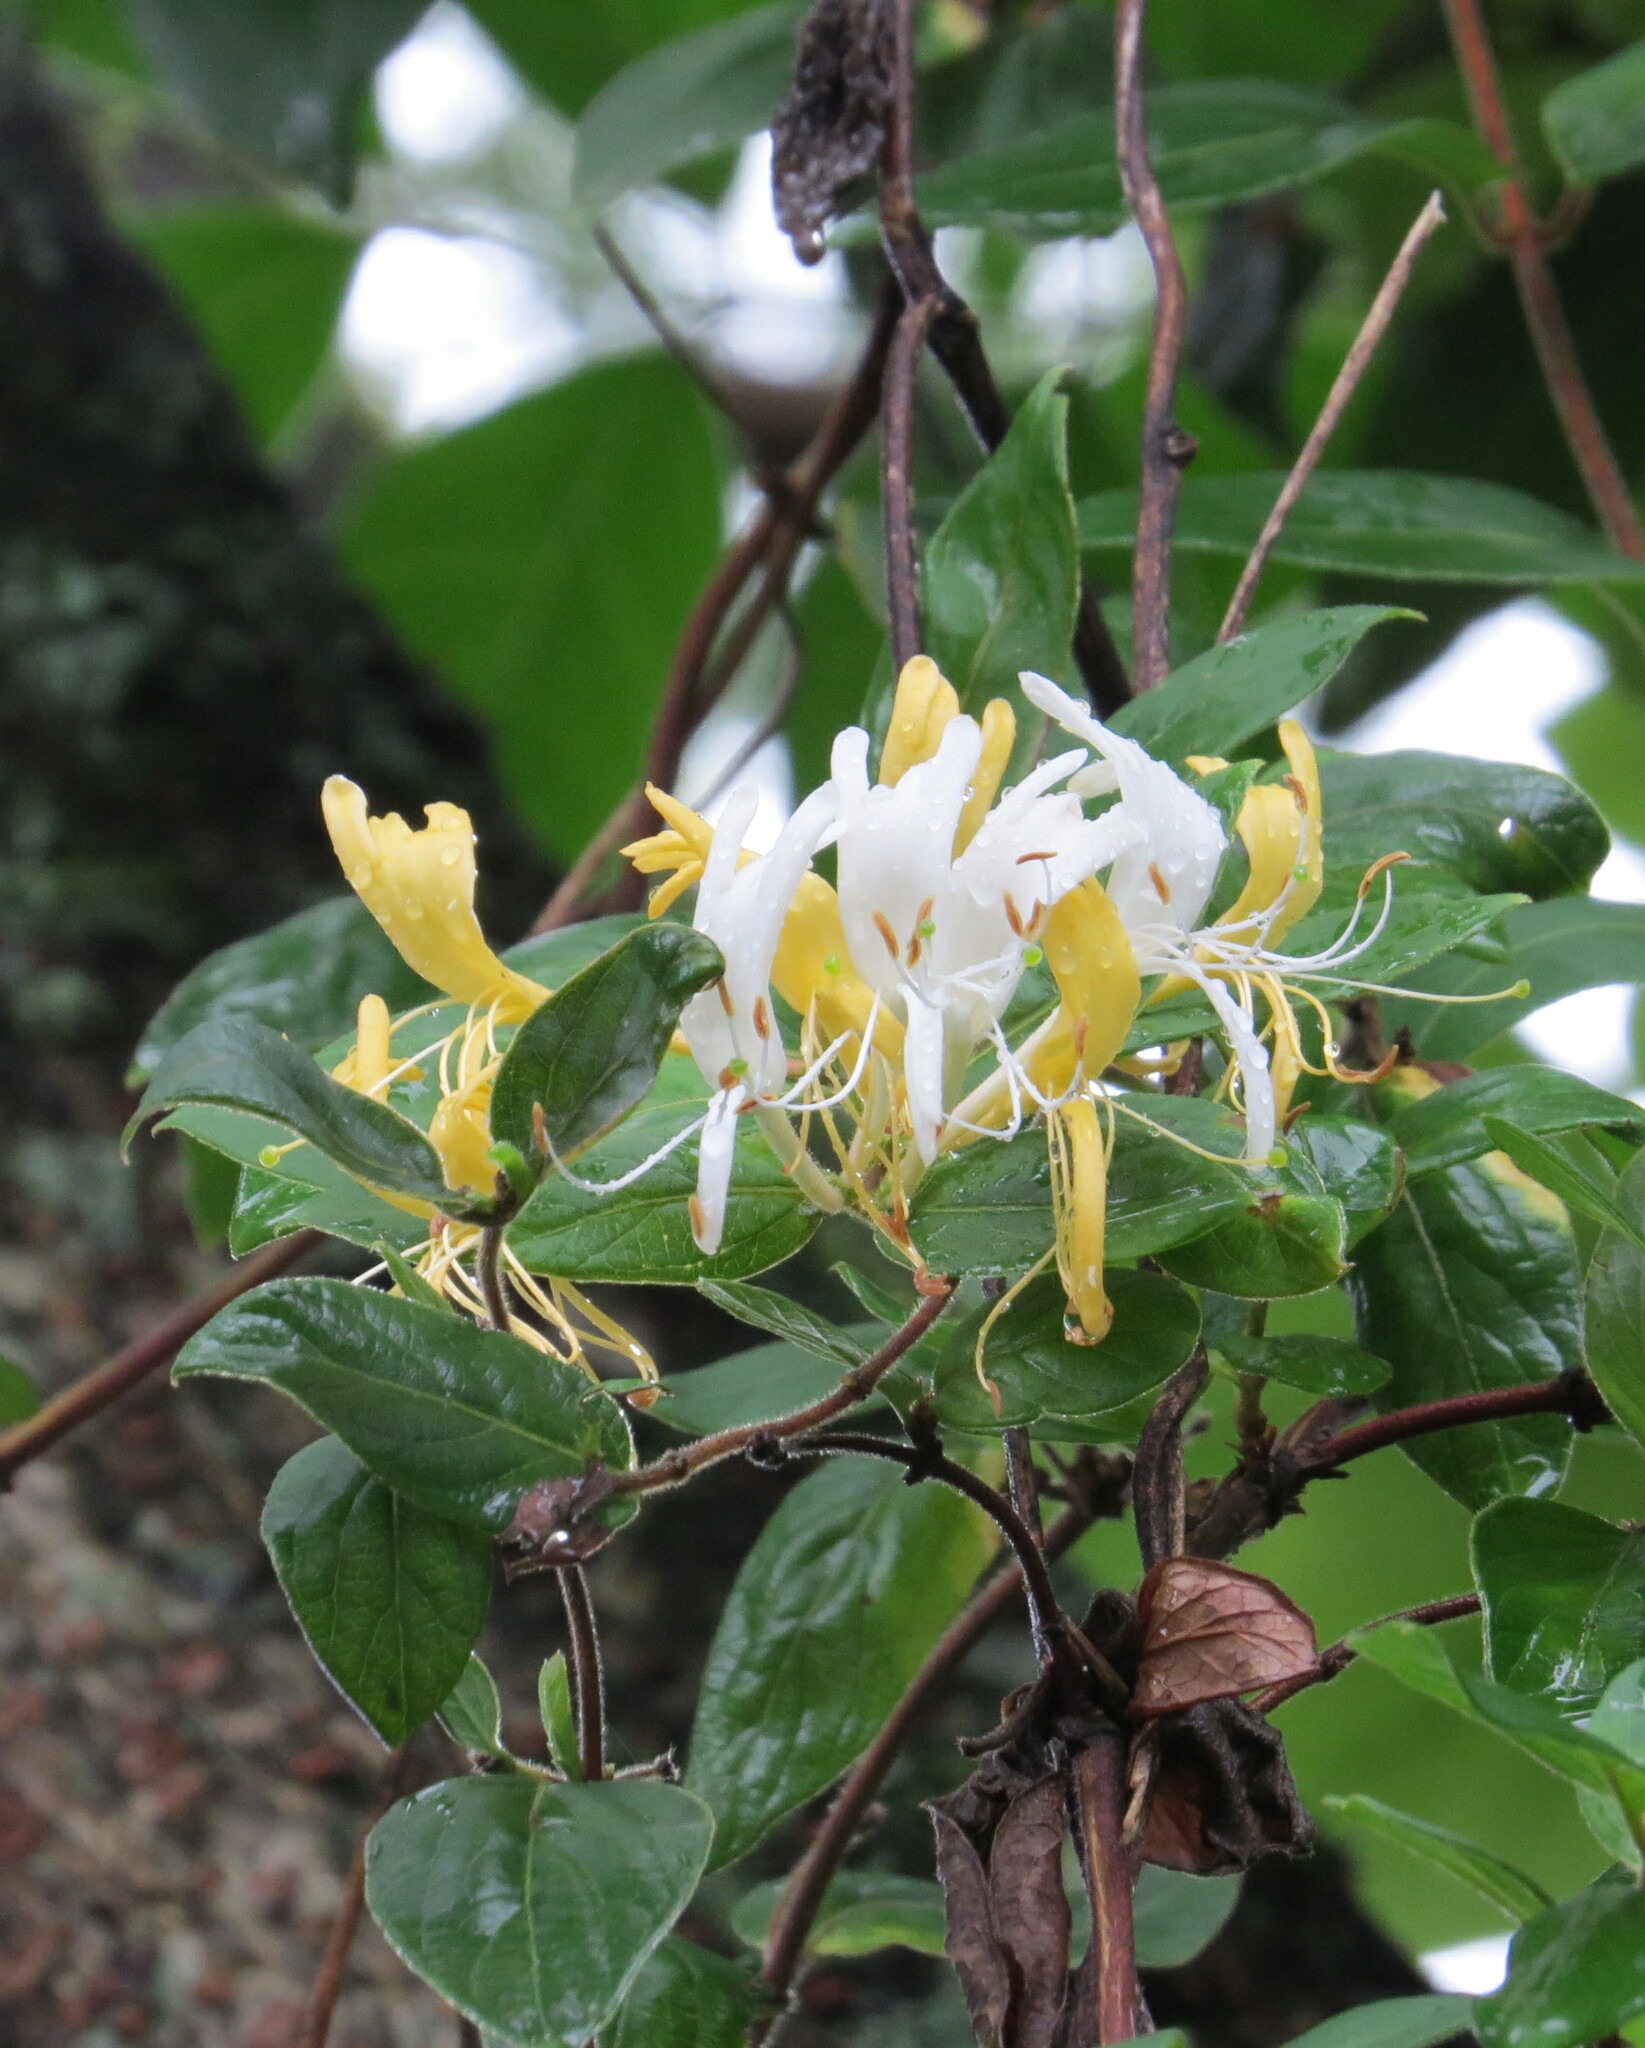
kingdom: Plantae
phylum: Tracheophyta
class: Magnoliopsida
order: Dipsacales
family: Caprifoliaceae
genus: Lonicera
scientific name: Lonicera japonica
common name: Japanese honeysuckle
